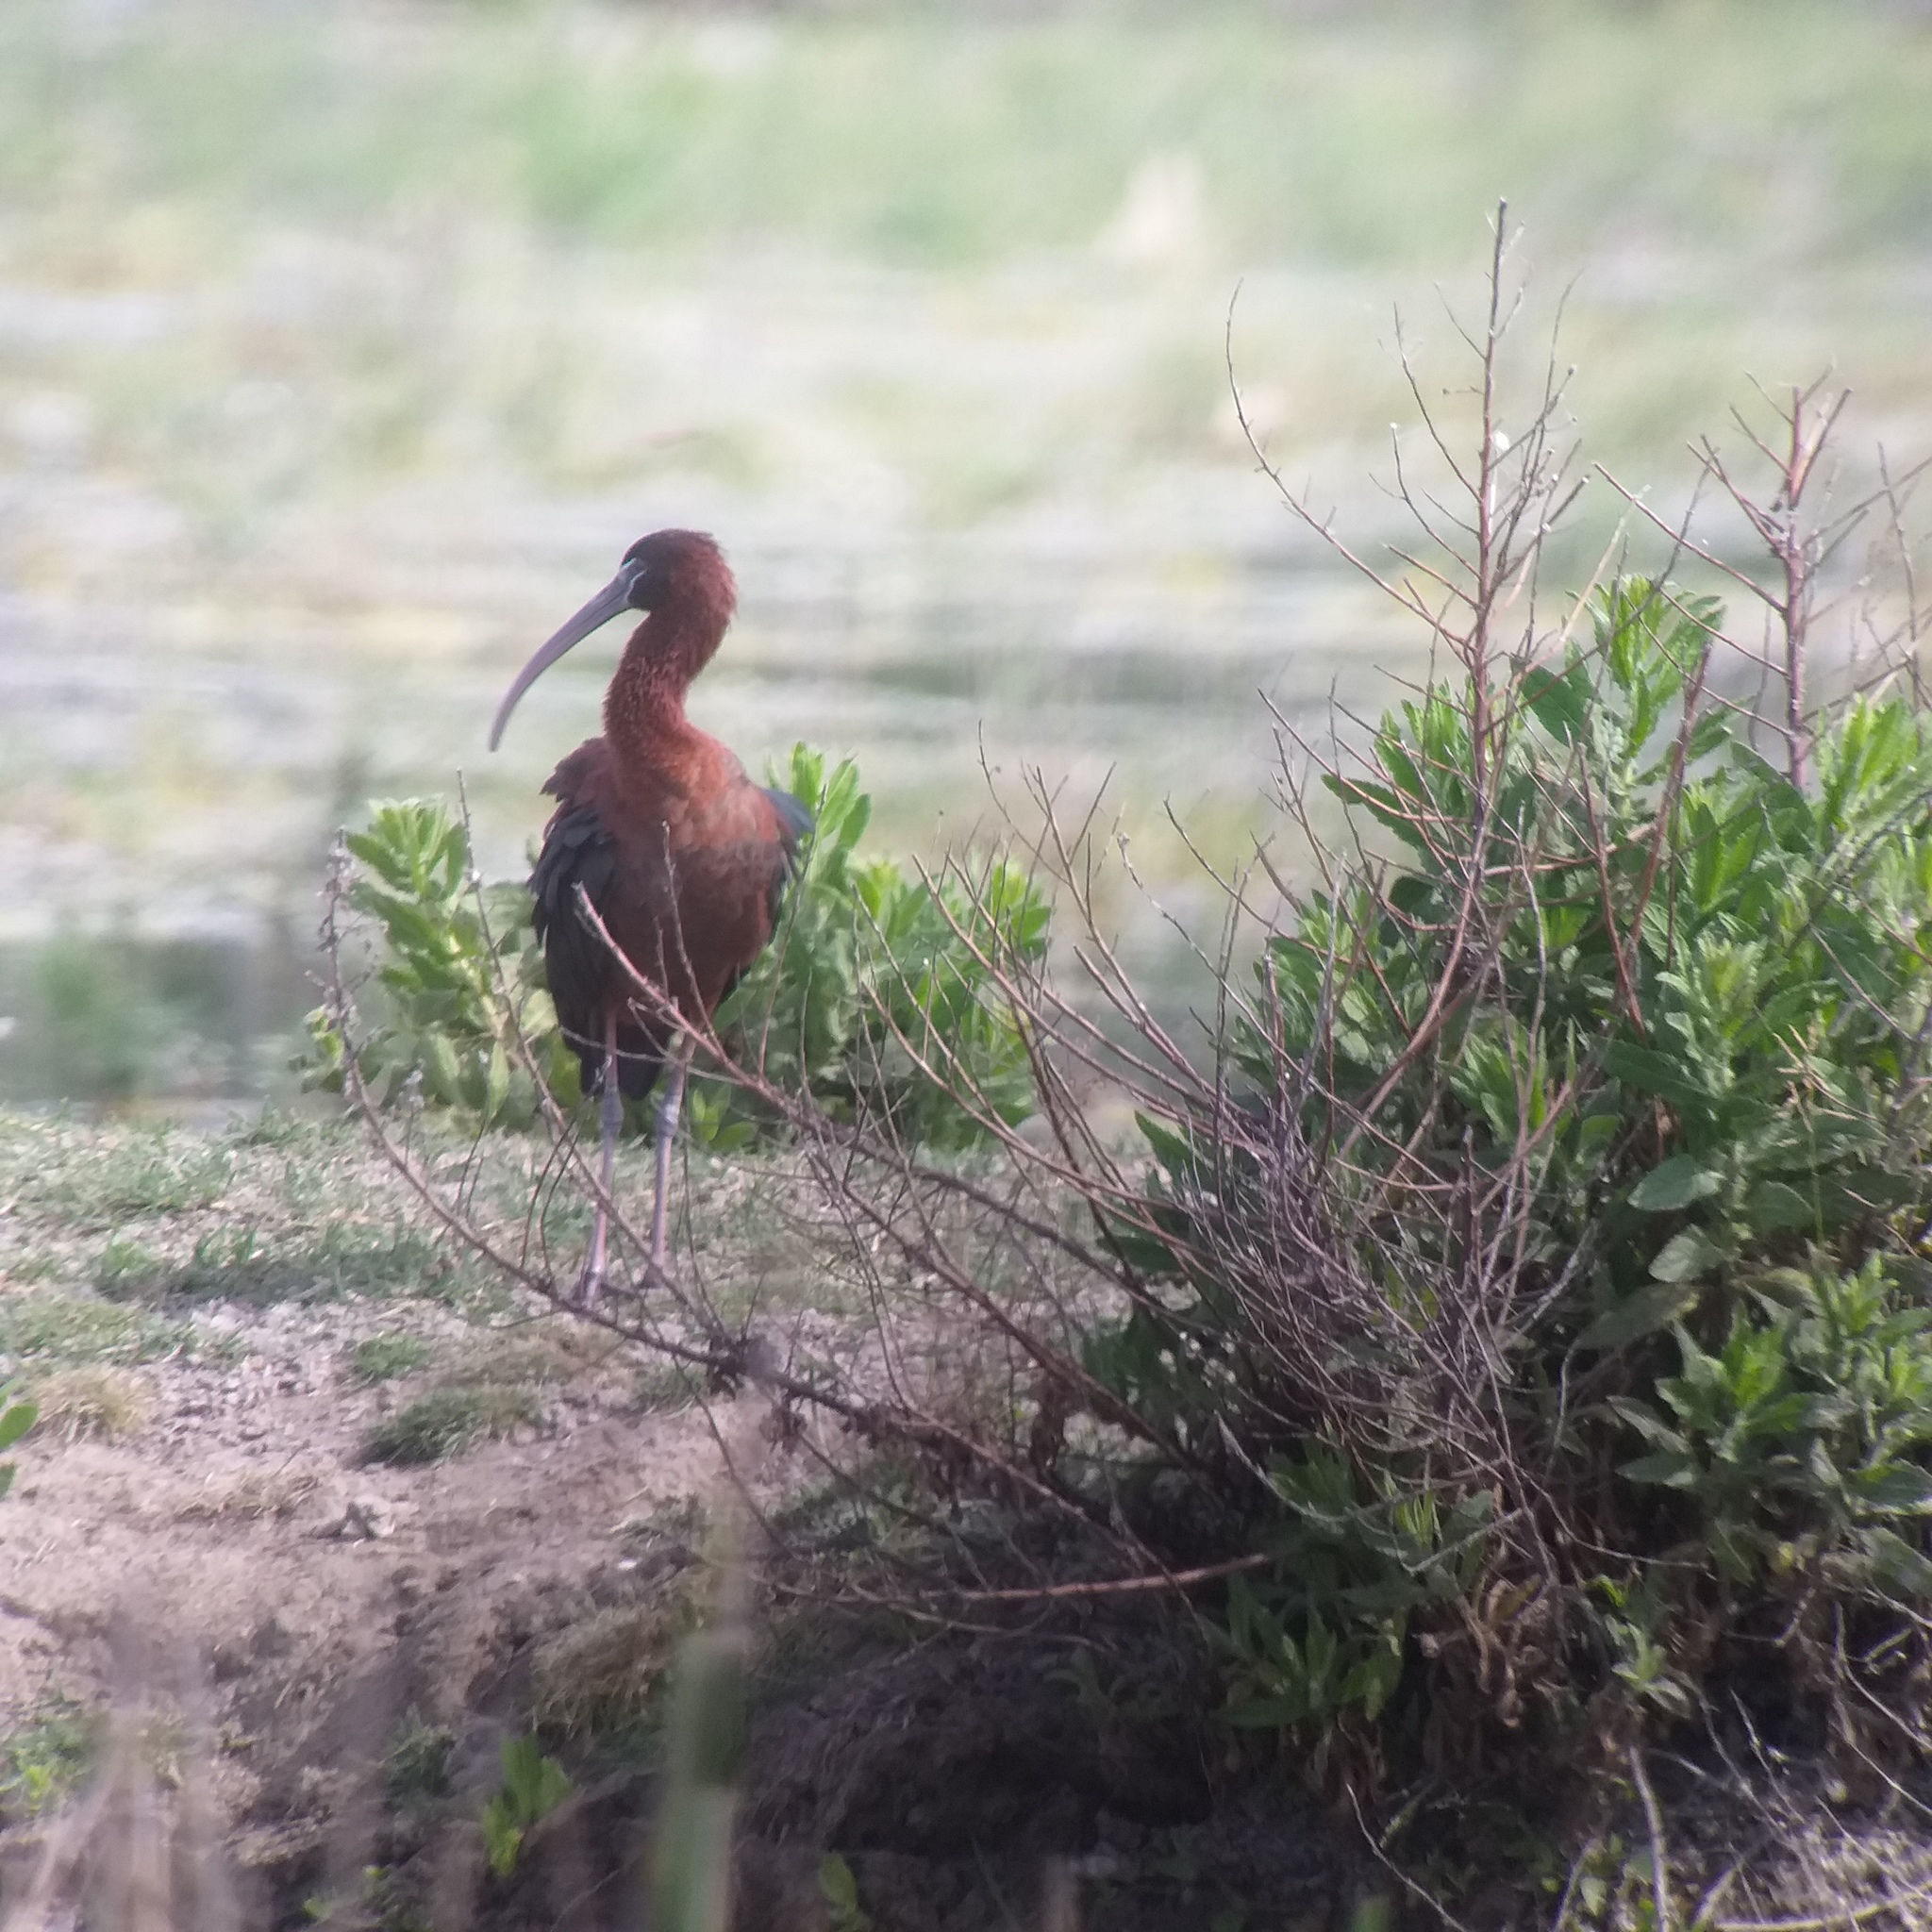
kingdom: Animalia
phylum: Chordata
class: Aves
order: Pelecaniformes
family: Threskiornithidae
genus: Plegadis
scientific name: Plegadis falcinellus
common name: Glossy ibis
